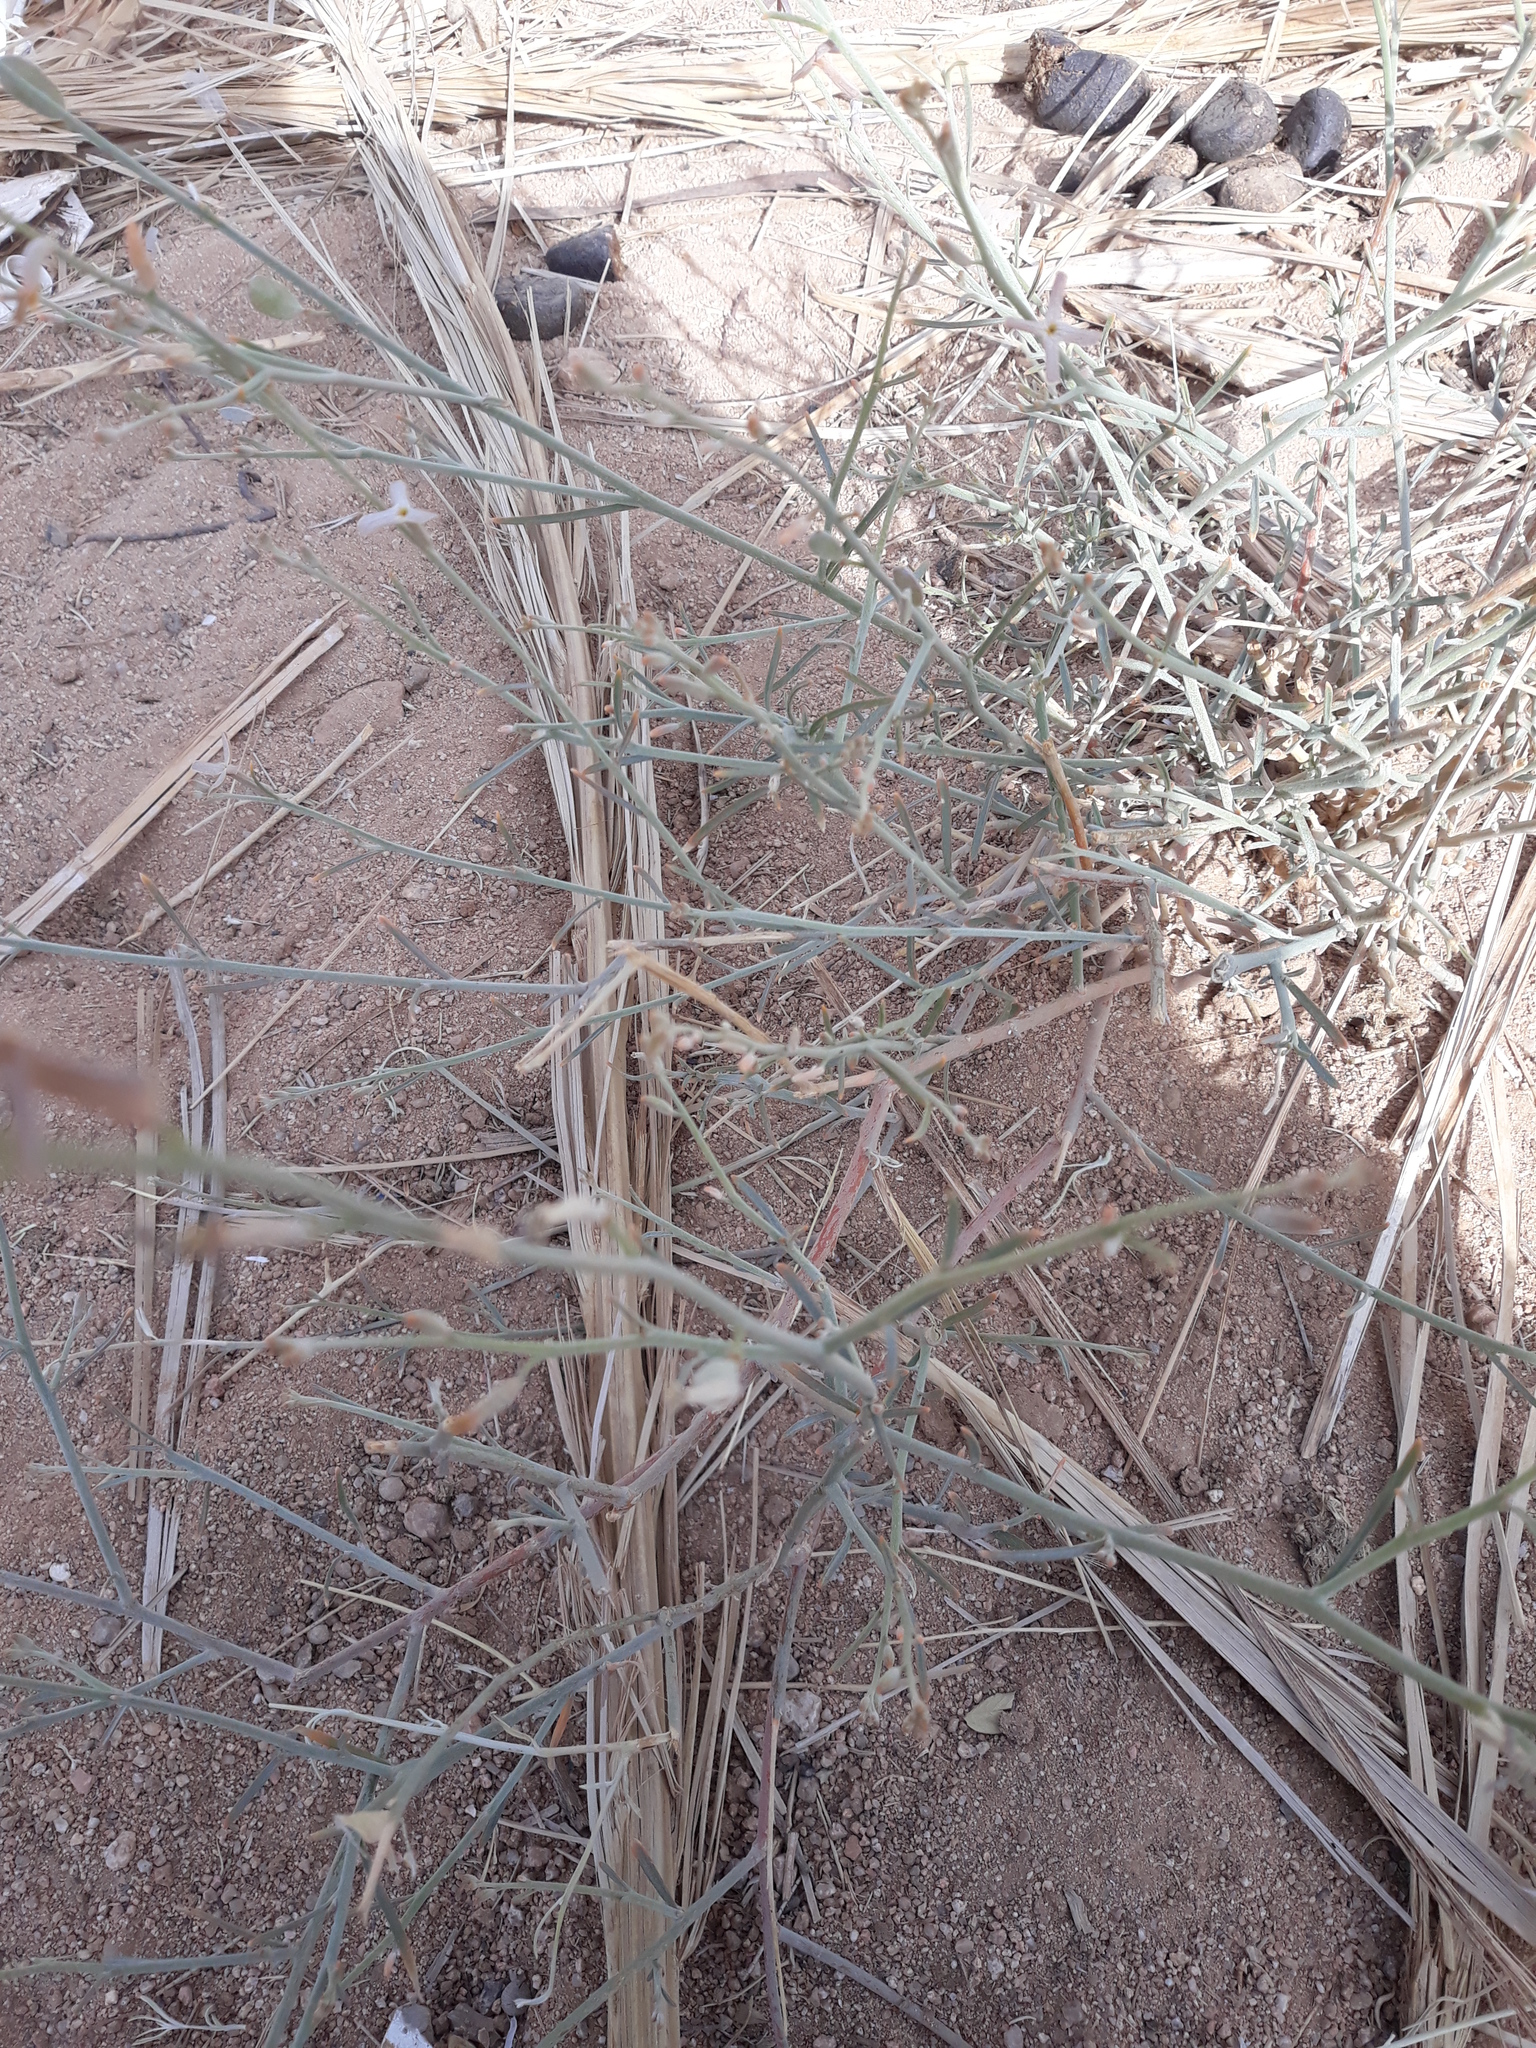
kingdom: Plantae
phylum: Tracheophyta
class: Magnoliopsida
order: Brassicales
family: Brassicaceae
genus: Farsetia
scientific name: Farsetia aegyptia
